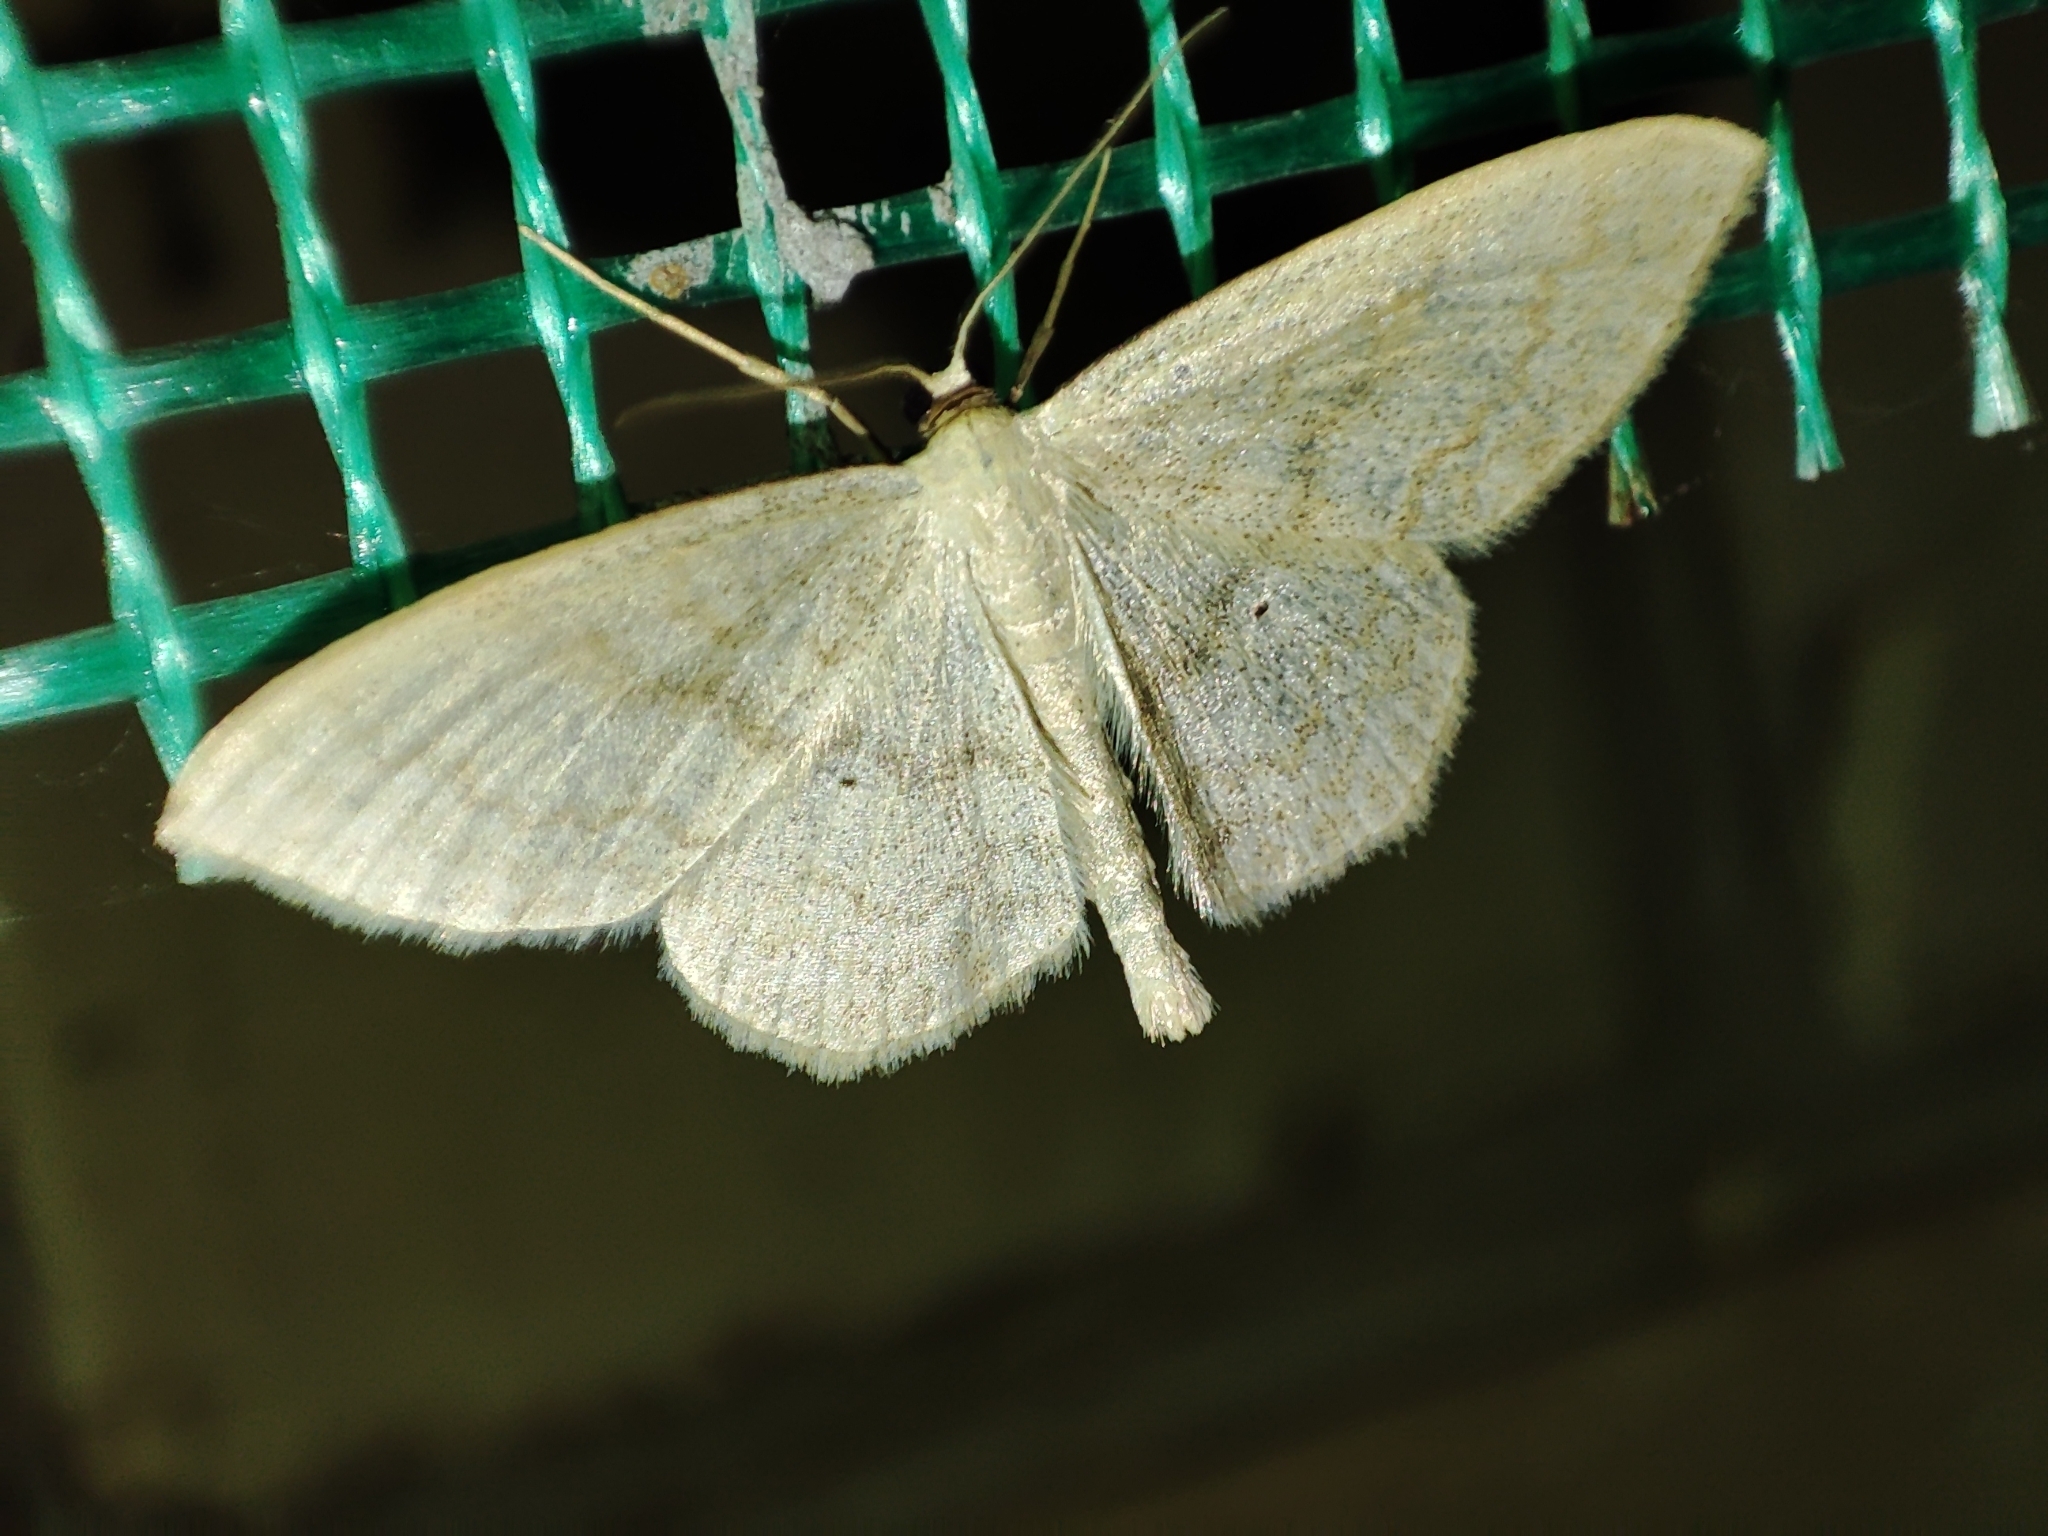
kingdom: Animalia
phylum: Arthropoda
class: Insecta
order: Lepidoptera
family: Geometridae
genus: Scopula
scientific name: Scopula floslactata
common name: Cream wave
